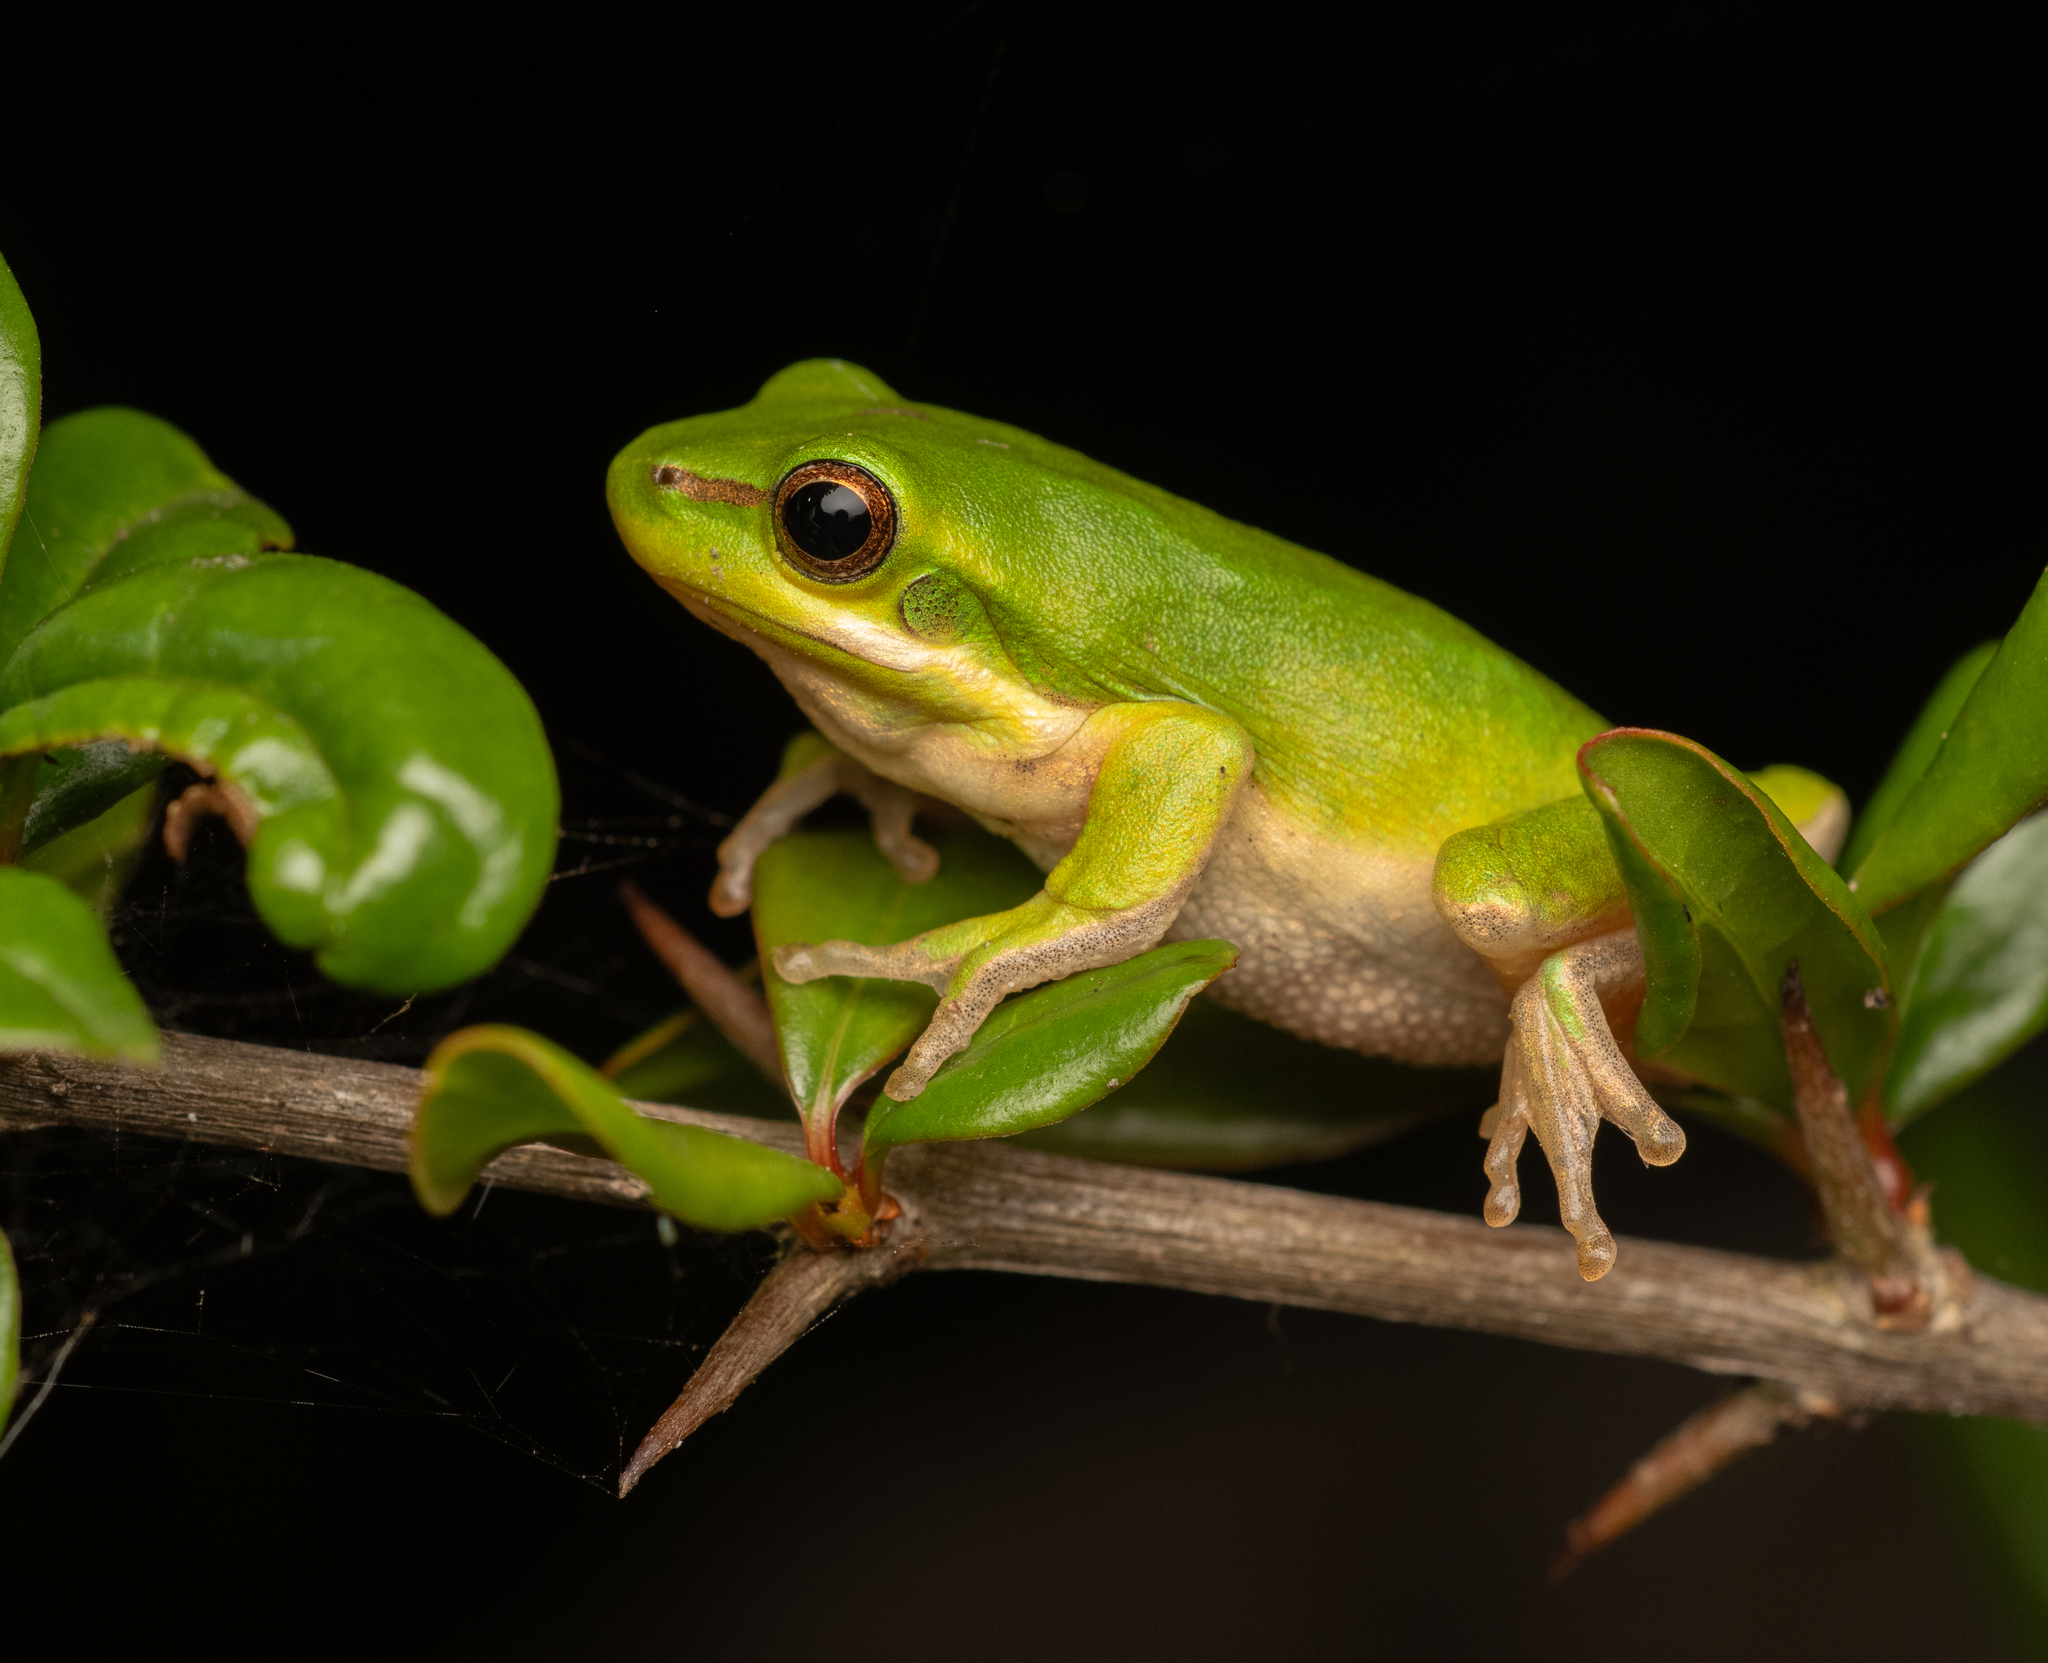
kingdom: Animalia
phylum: Chordata
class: Amphibia
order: Anura
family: Pelodryadidae
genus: Litoria
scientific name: Litoria fallax
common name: Eastern dwarf treefrog
